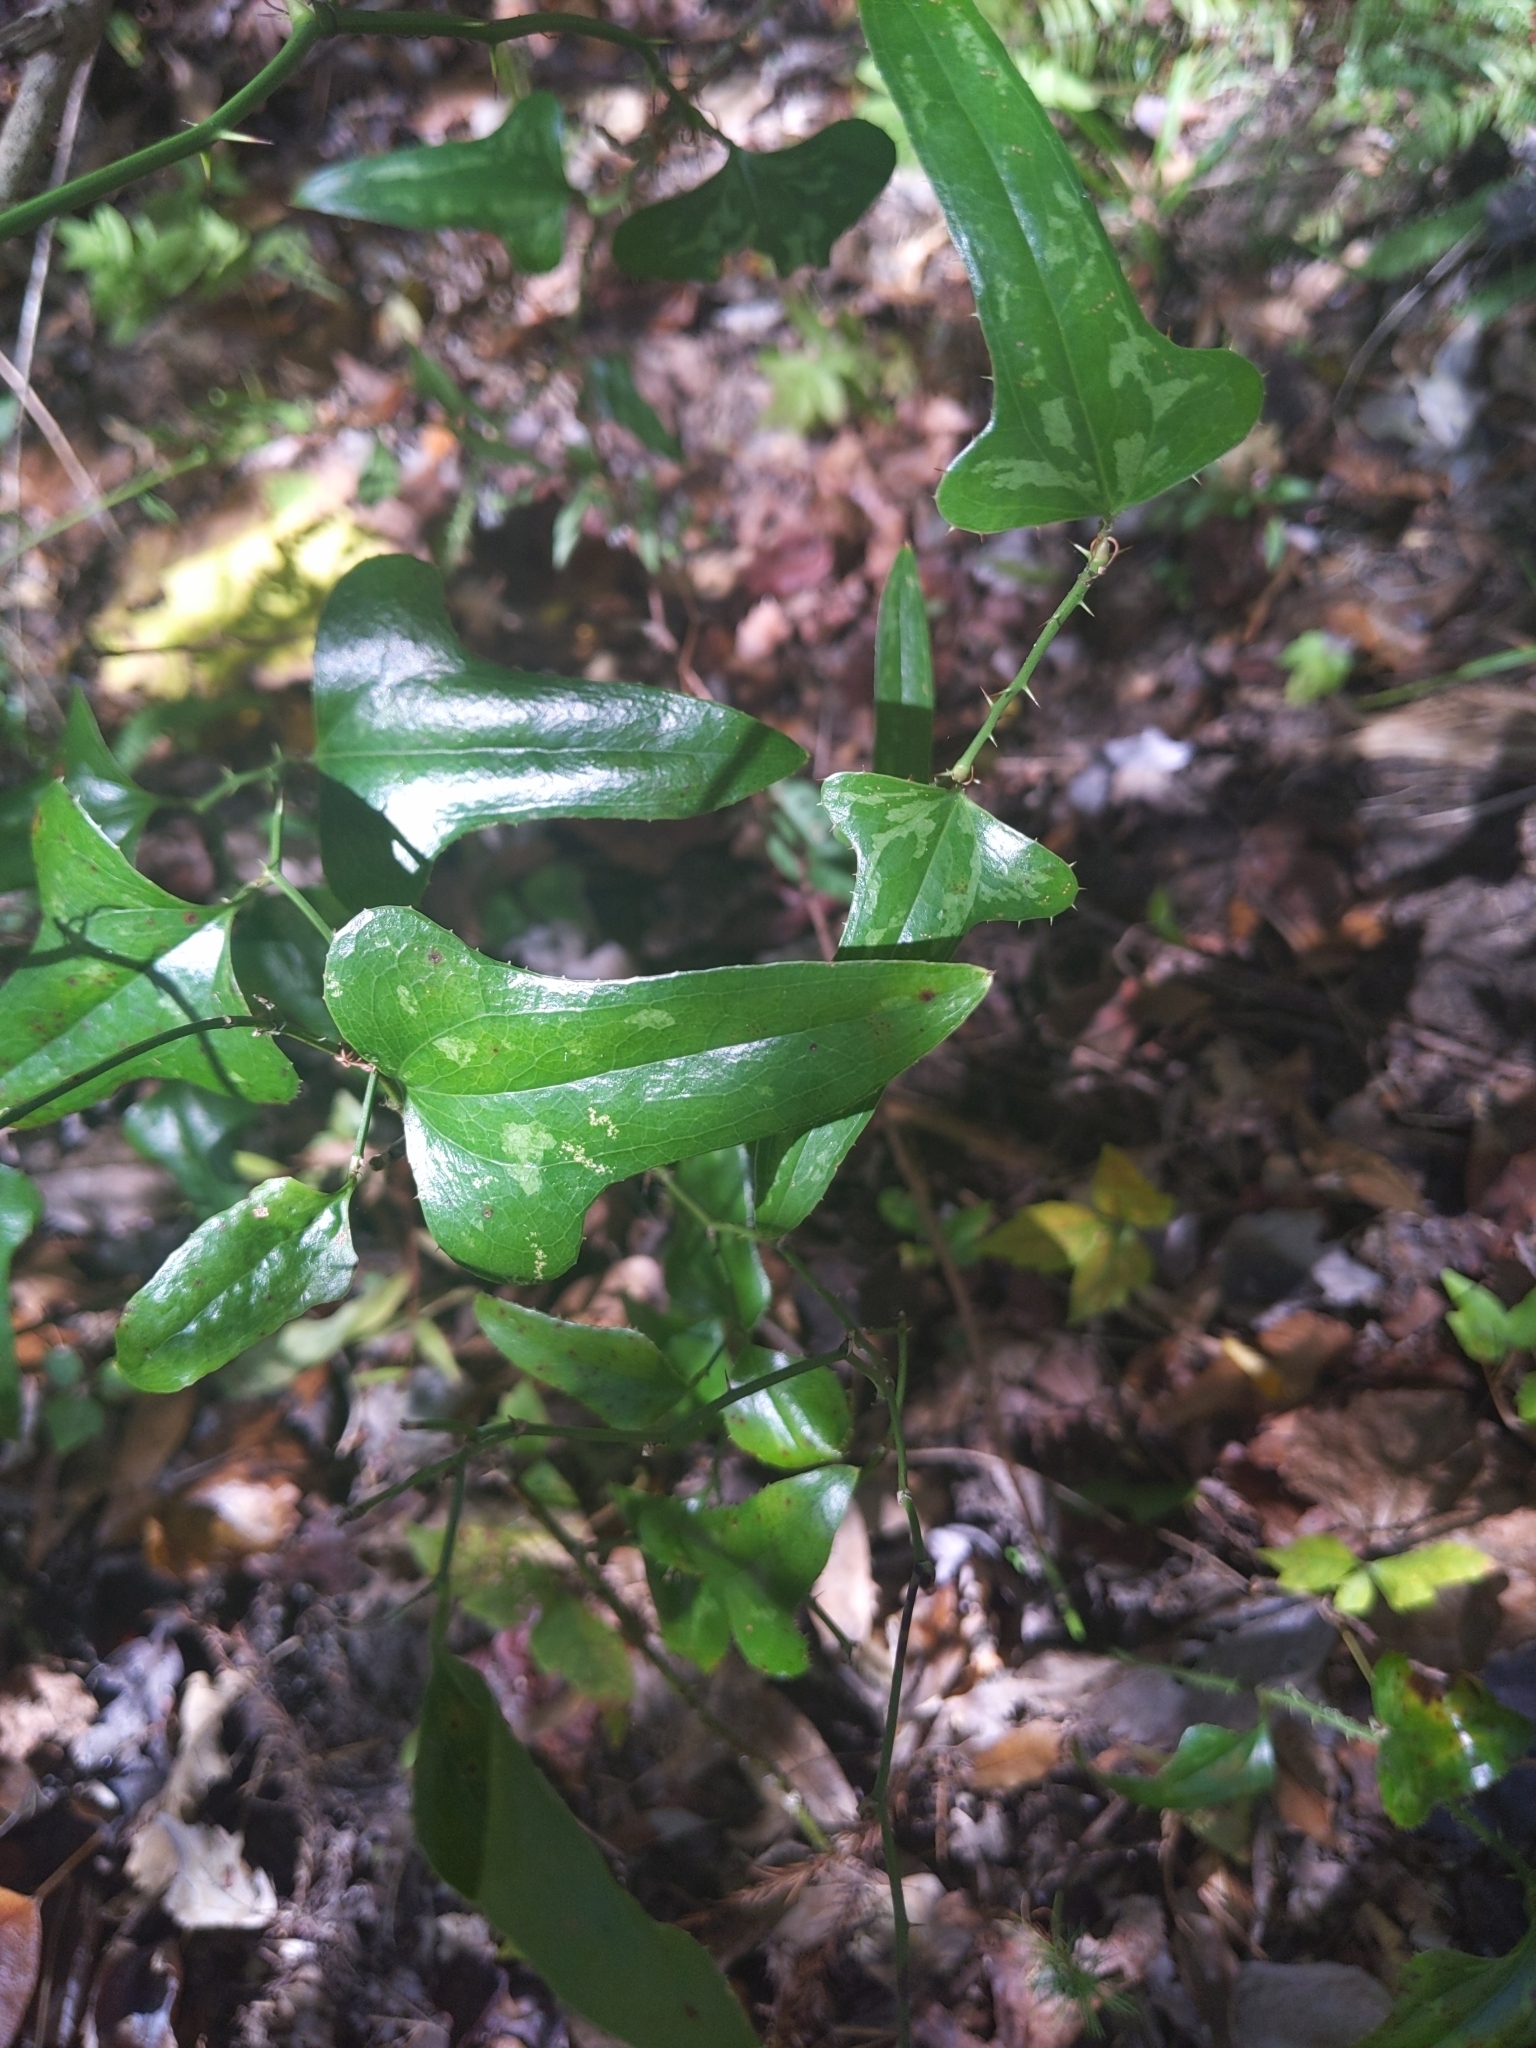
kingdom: Plantae
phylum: Tracheophyta
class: Liliopsida
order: Liliales
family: Smilacaceae
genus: Smilax
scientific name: Smilax bona-nox
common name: Catbrier
